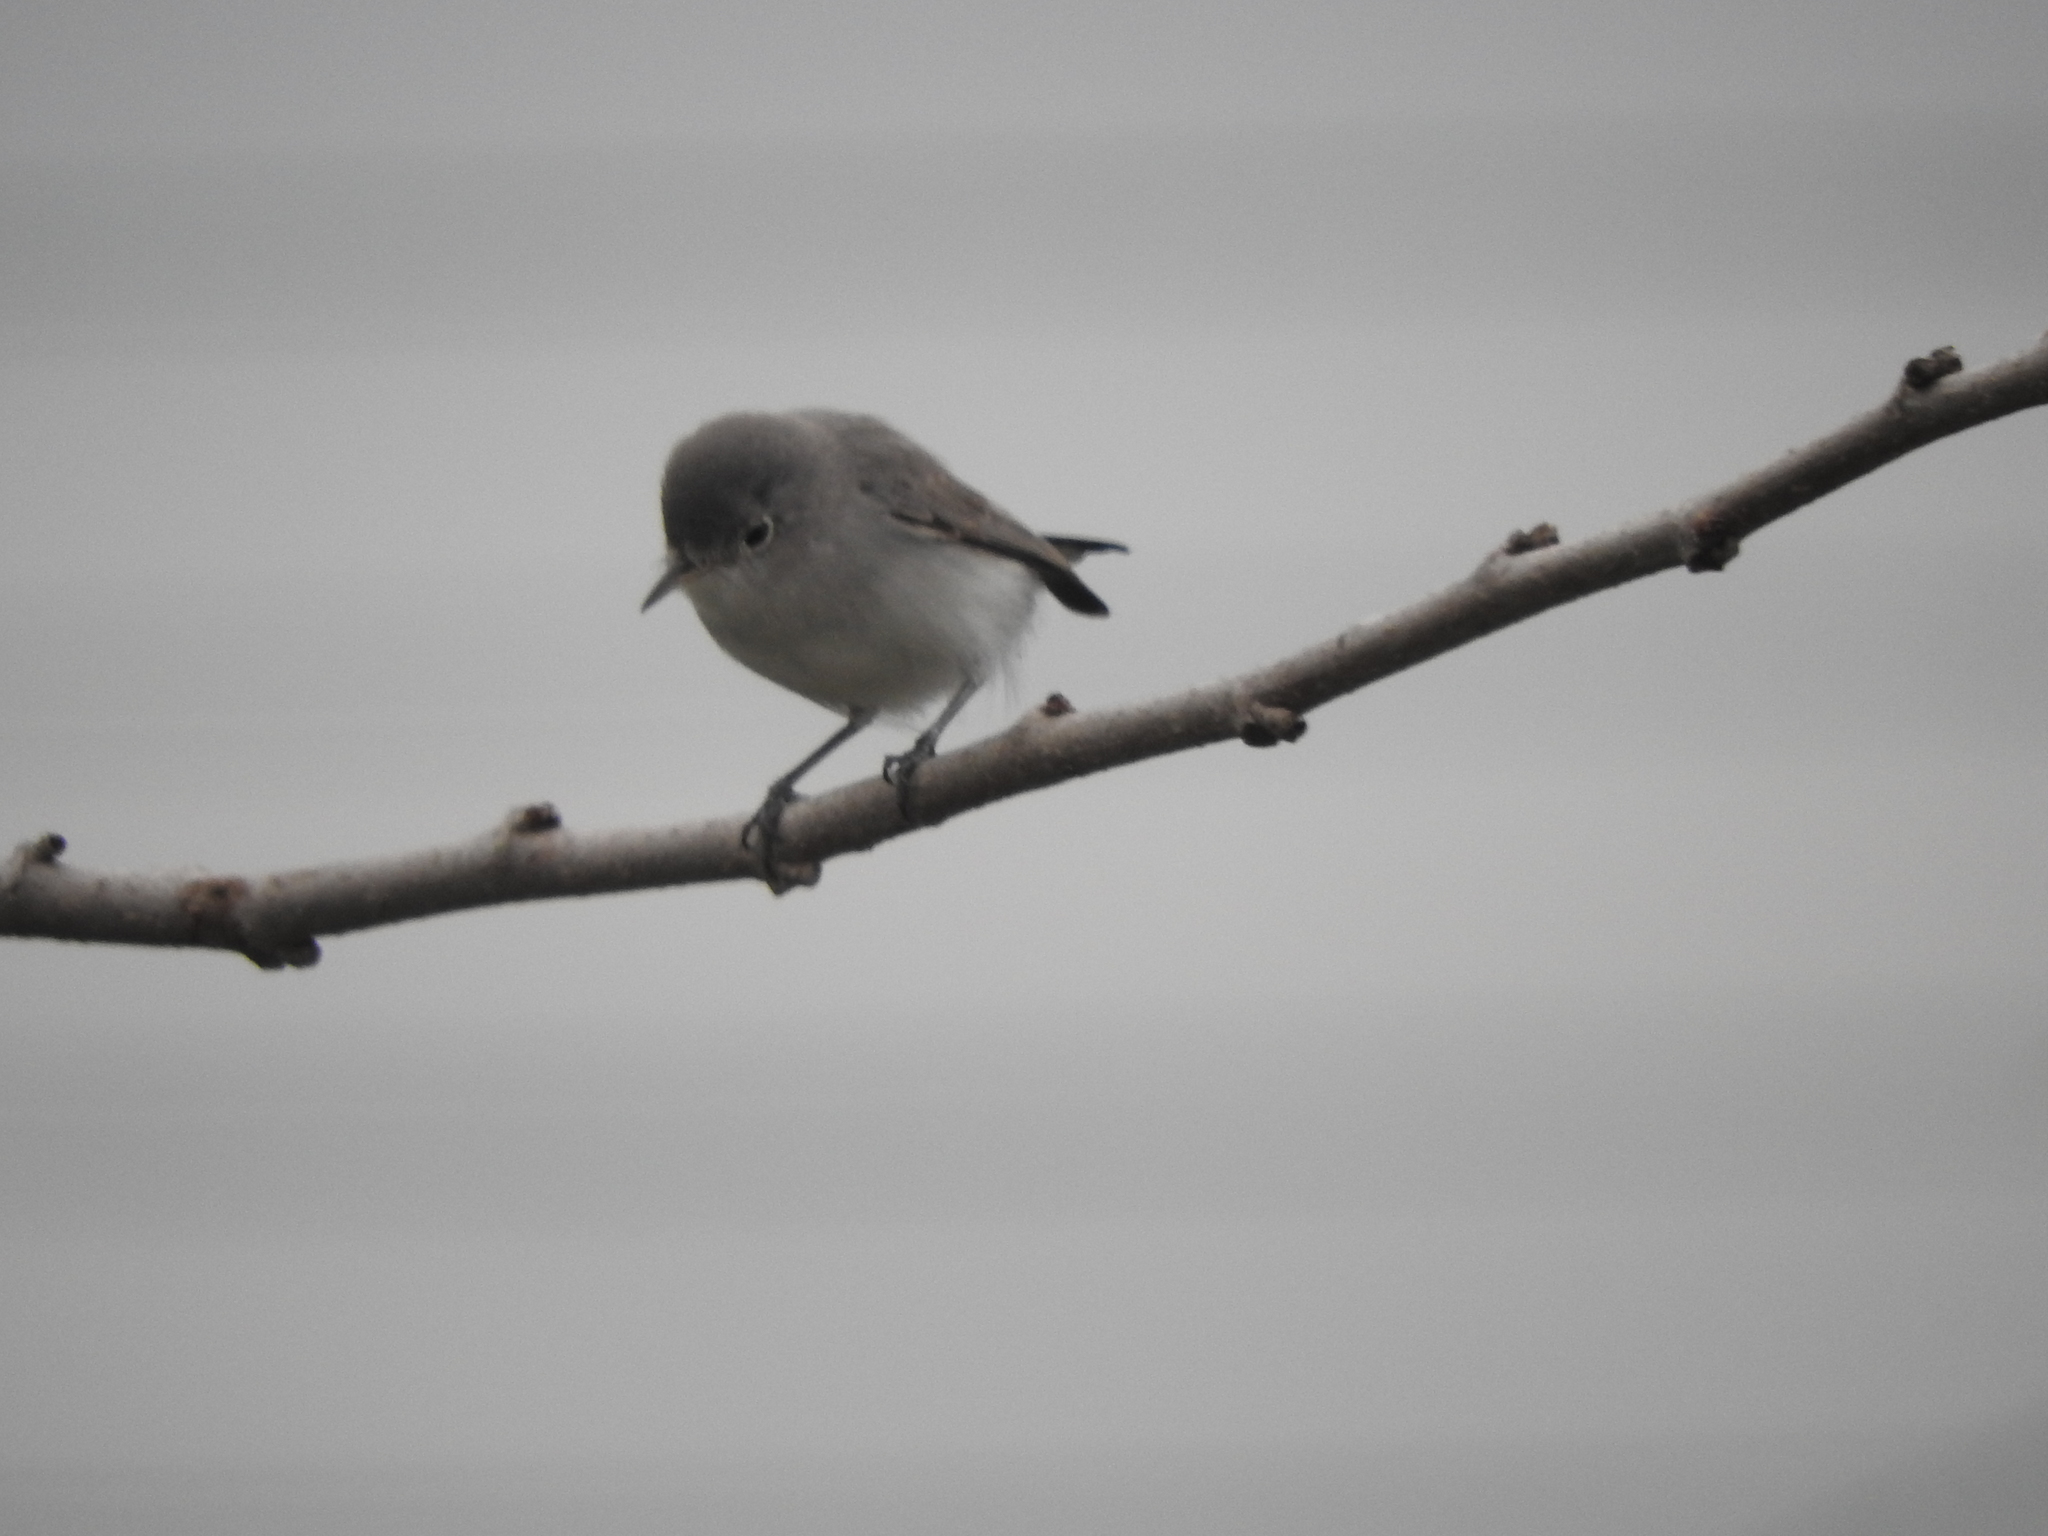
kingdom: Animalia
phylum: Chordata
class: Aves
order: Passeriformes
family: Polioptilidae
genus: Polioptila
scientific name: Polioptila caerulea
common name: Blue-gray gnatcatcher
